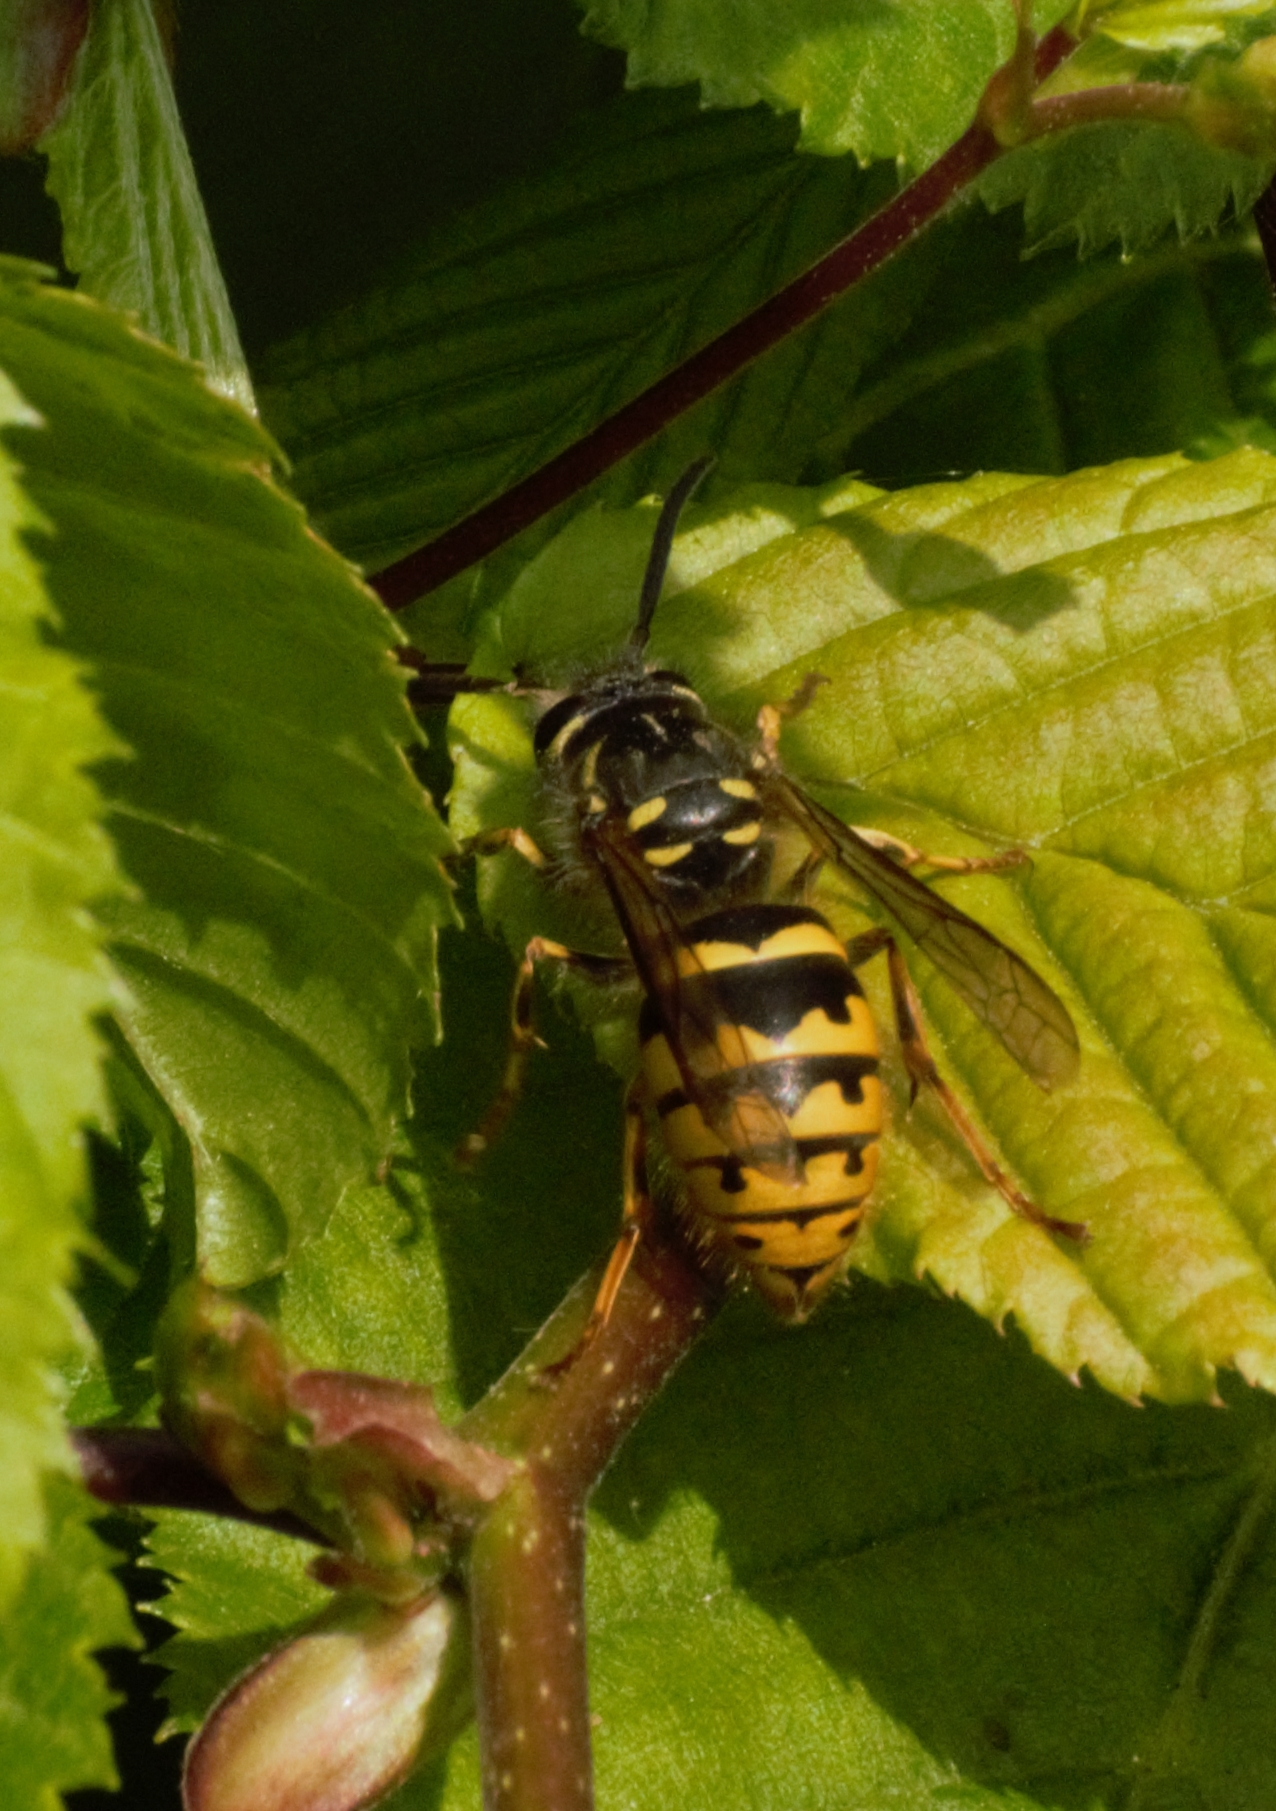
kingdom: Animalia
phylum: Arthropoda
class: Insecta
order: Hymenoptera
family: Vespidae
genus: Vespula
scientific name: Vespula vulgaris
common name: Common wasp
